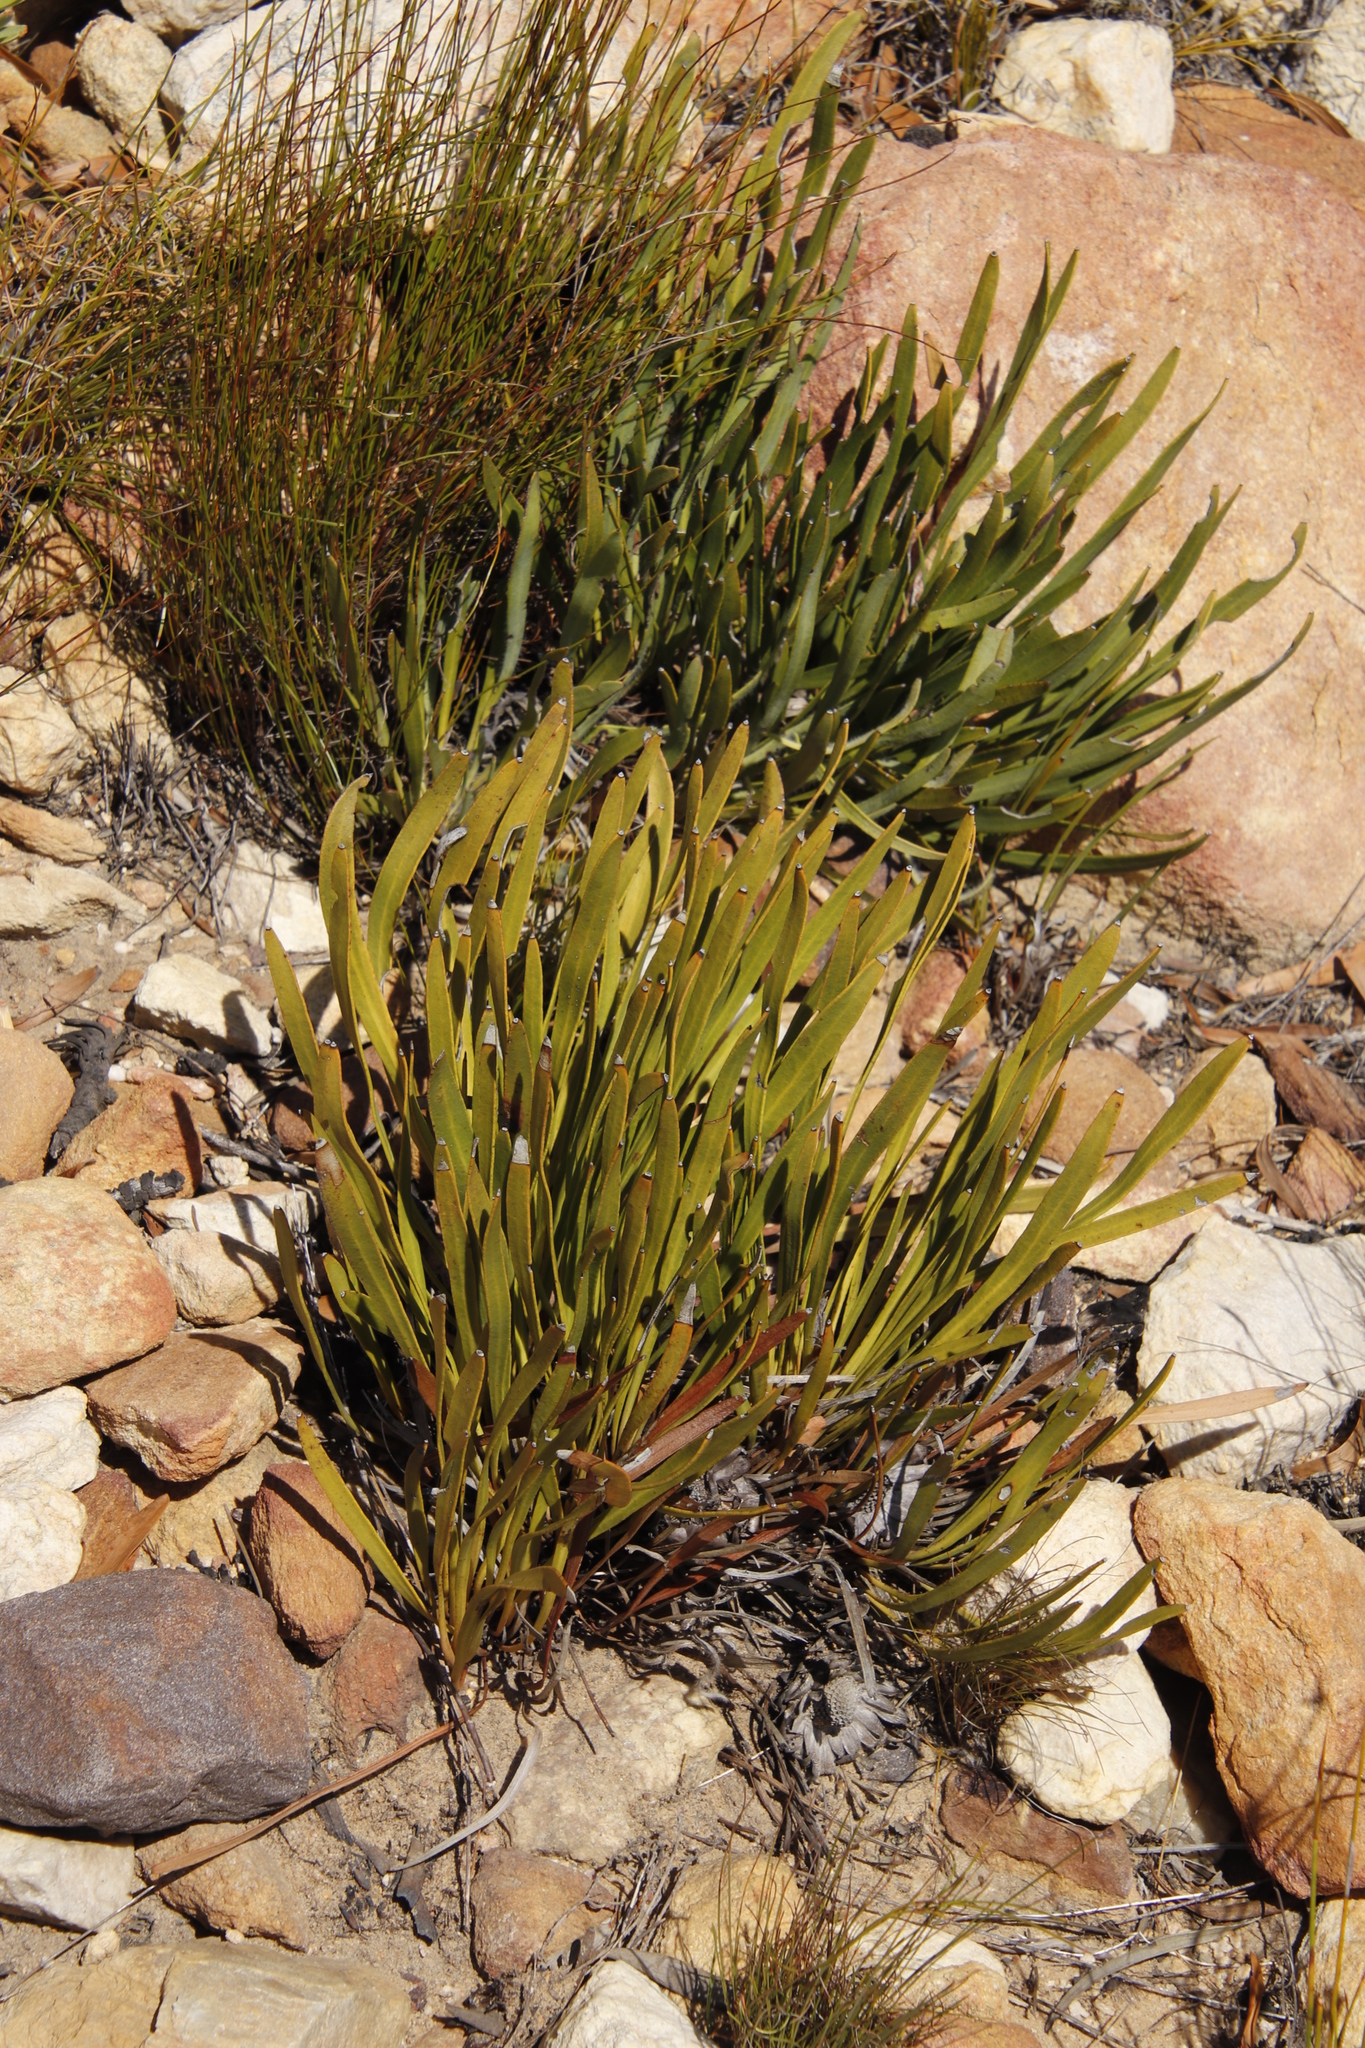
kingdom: Plantae
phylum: Tracheophyta
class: Magnoliopsida
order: Proteales
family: Proteaceae
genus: Protea
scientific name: Protea scabra
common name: Sandpaper-leaf sugarbush
